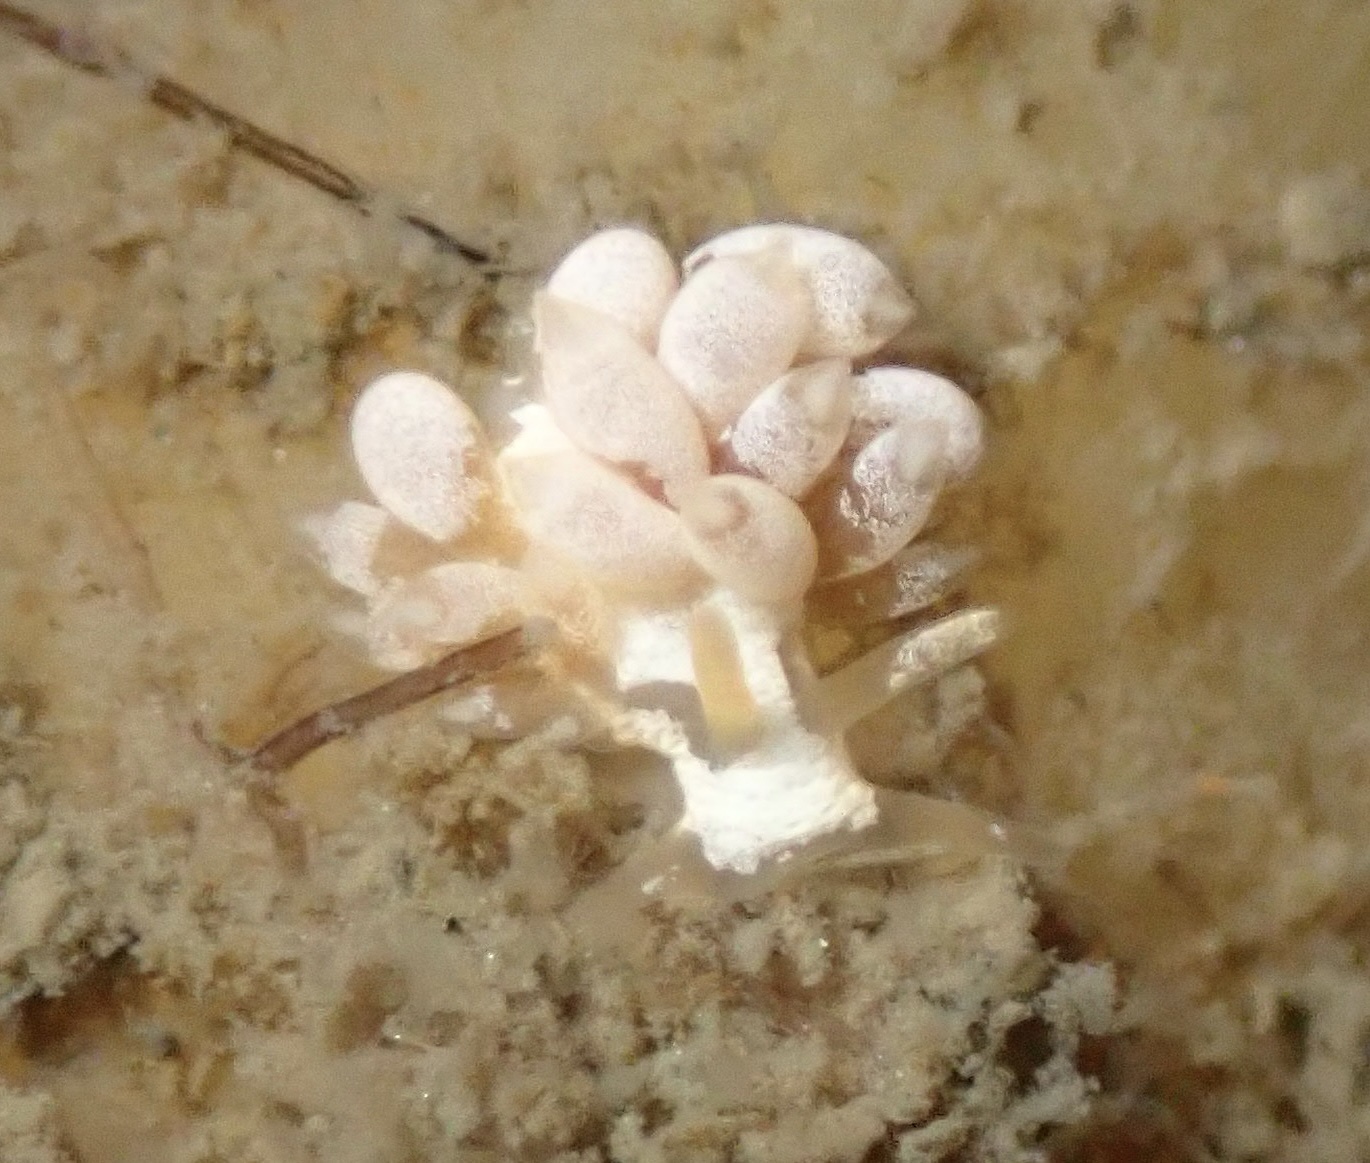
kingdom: Animalia
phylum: Mollusca
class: Gastropoda
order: Nudibranchia
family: Trinchesiidae
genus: Trinchesia
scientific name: Trinchesia albocrusta
